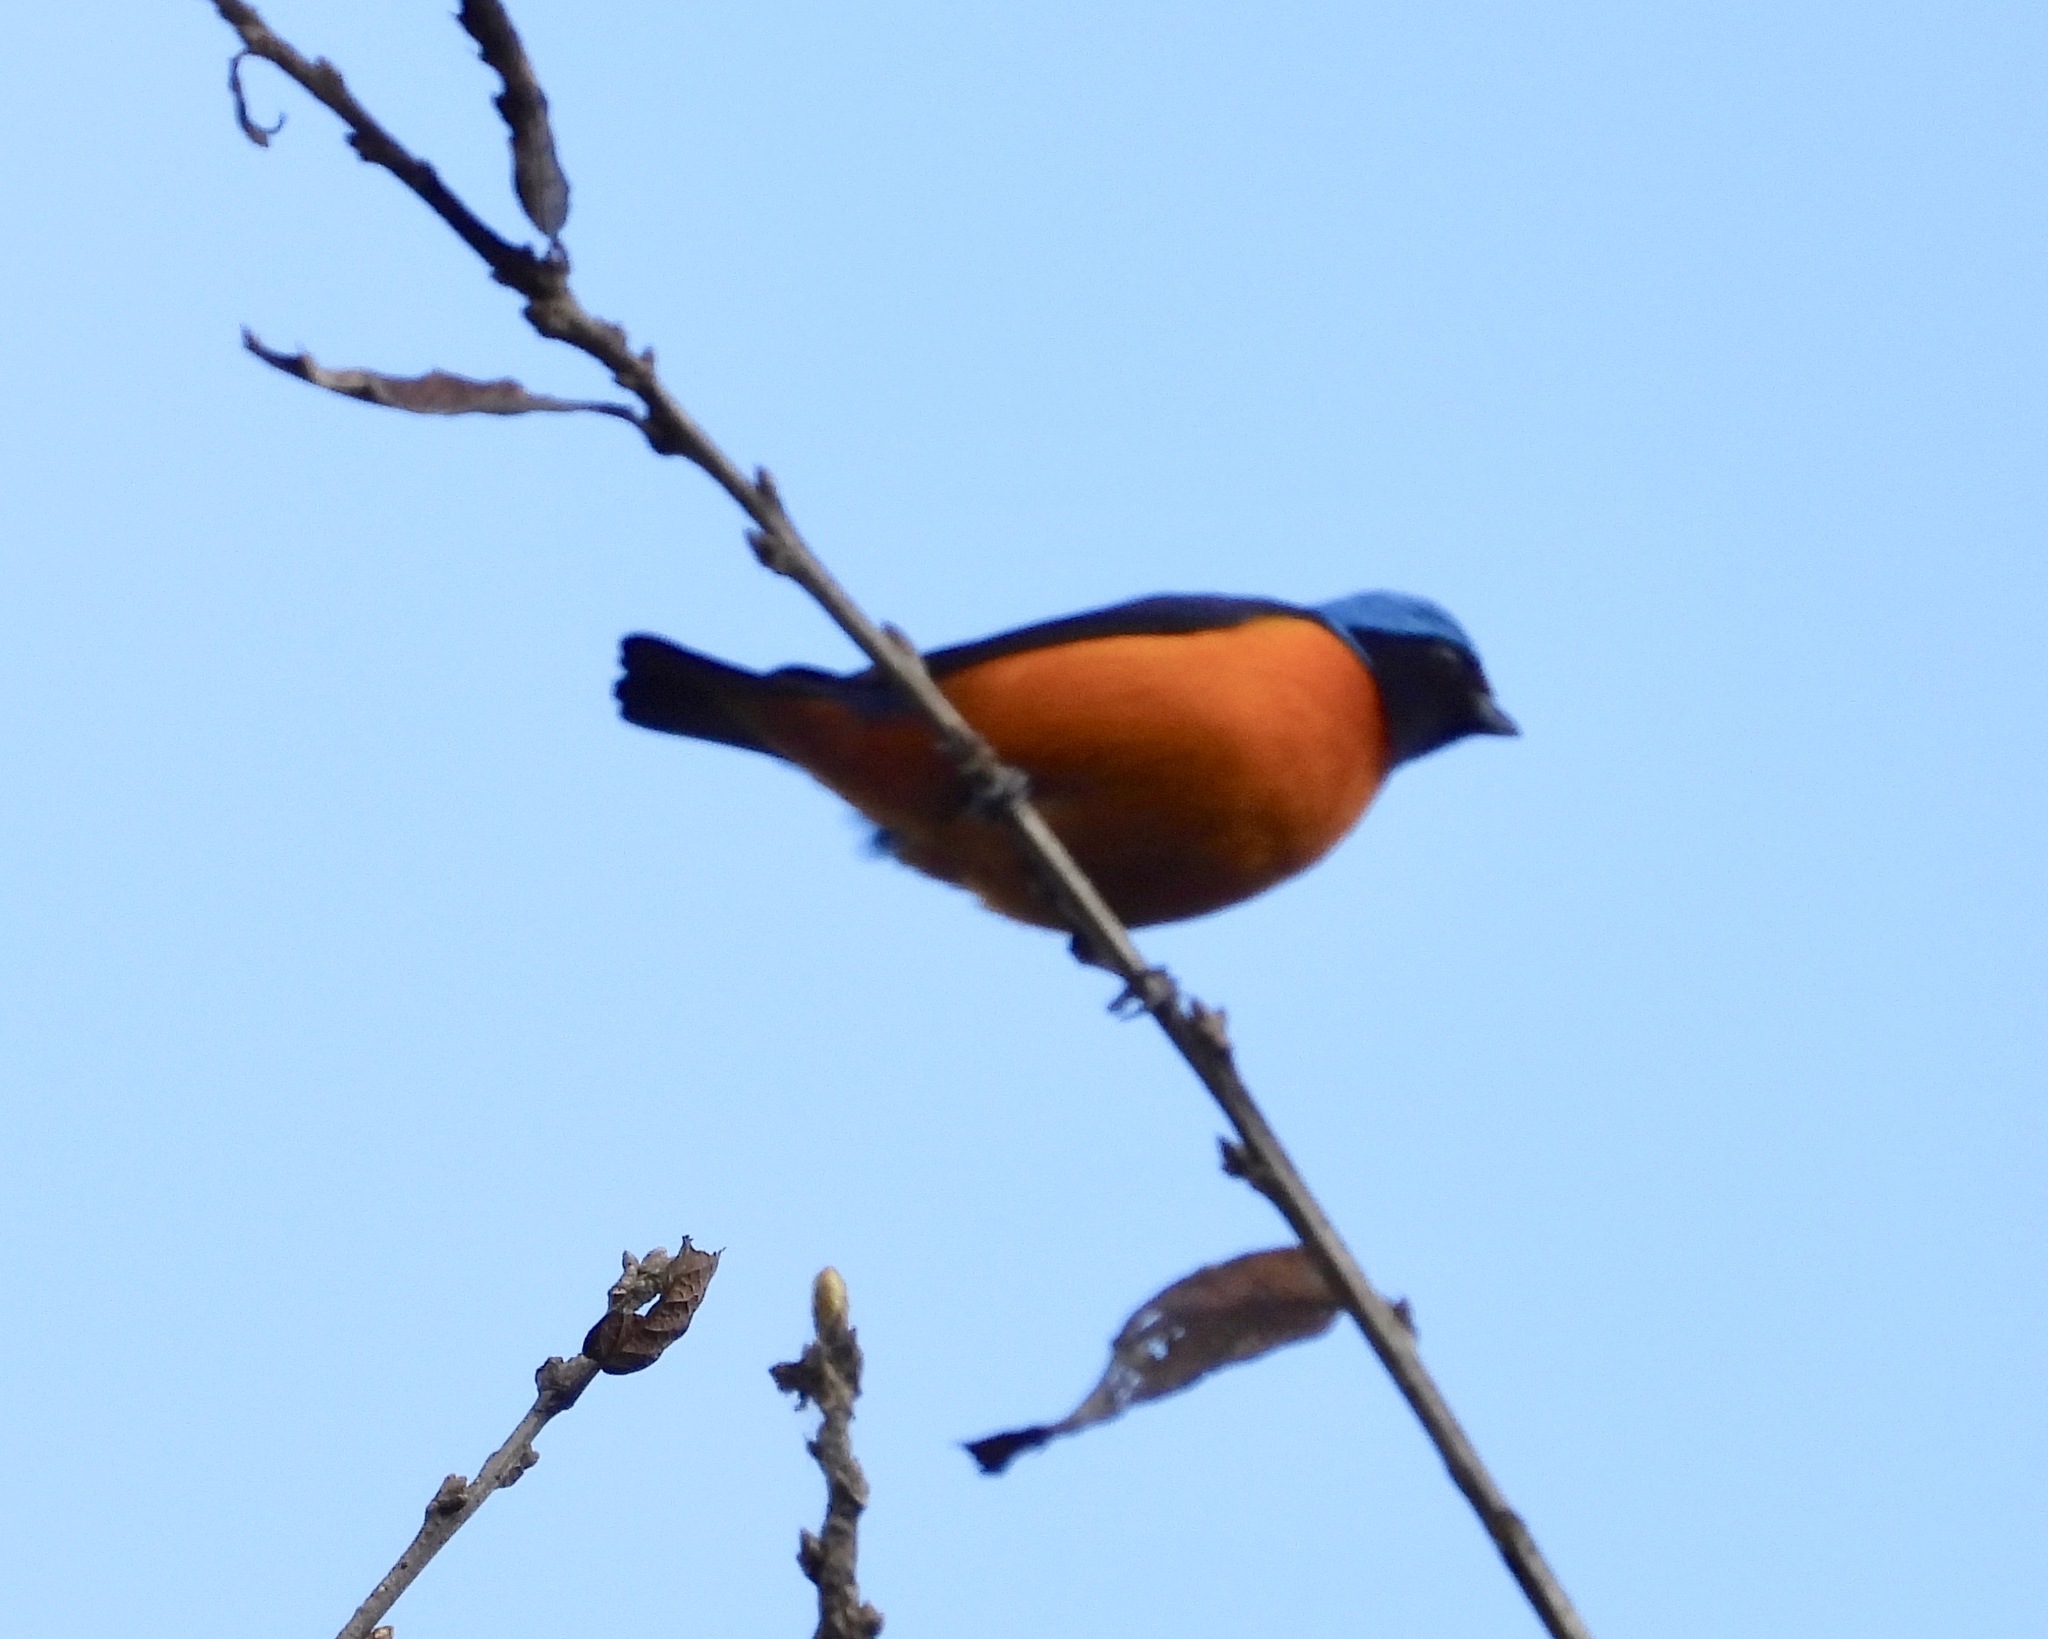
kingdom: Animalia
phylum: Chordata
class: Aves
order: Passeriformes
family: Fringillidae
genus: Euphonia
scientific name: Euphonia elegantissima
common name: Elegant euphonia
